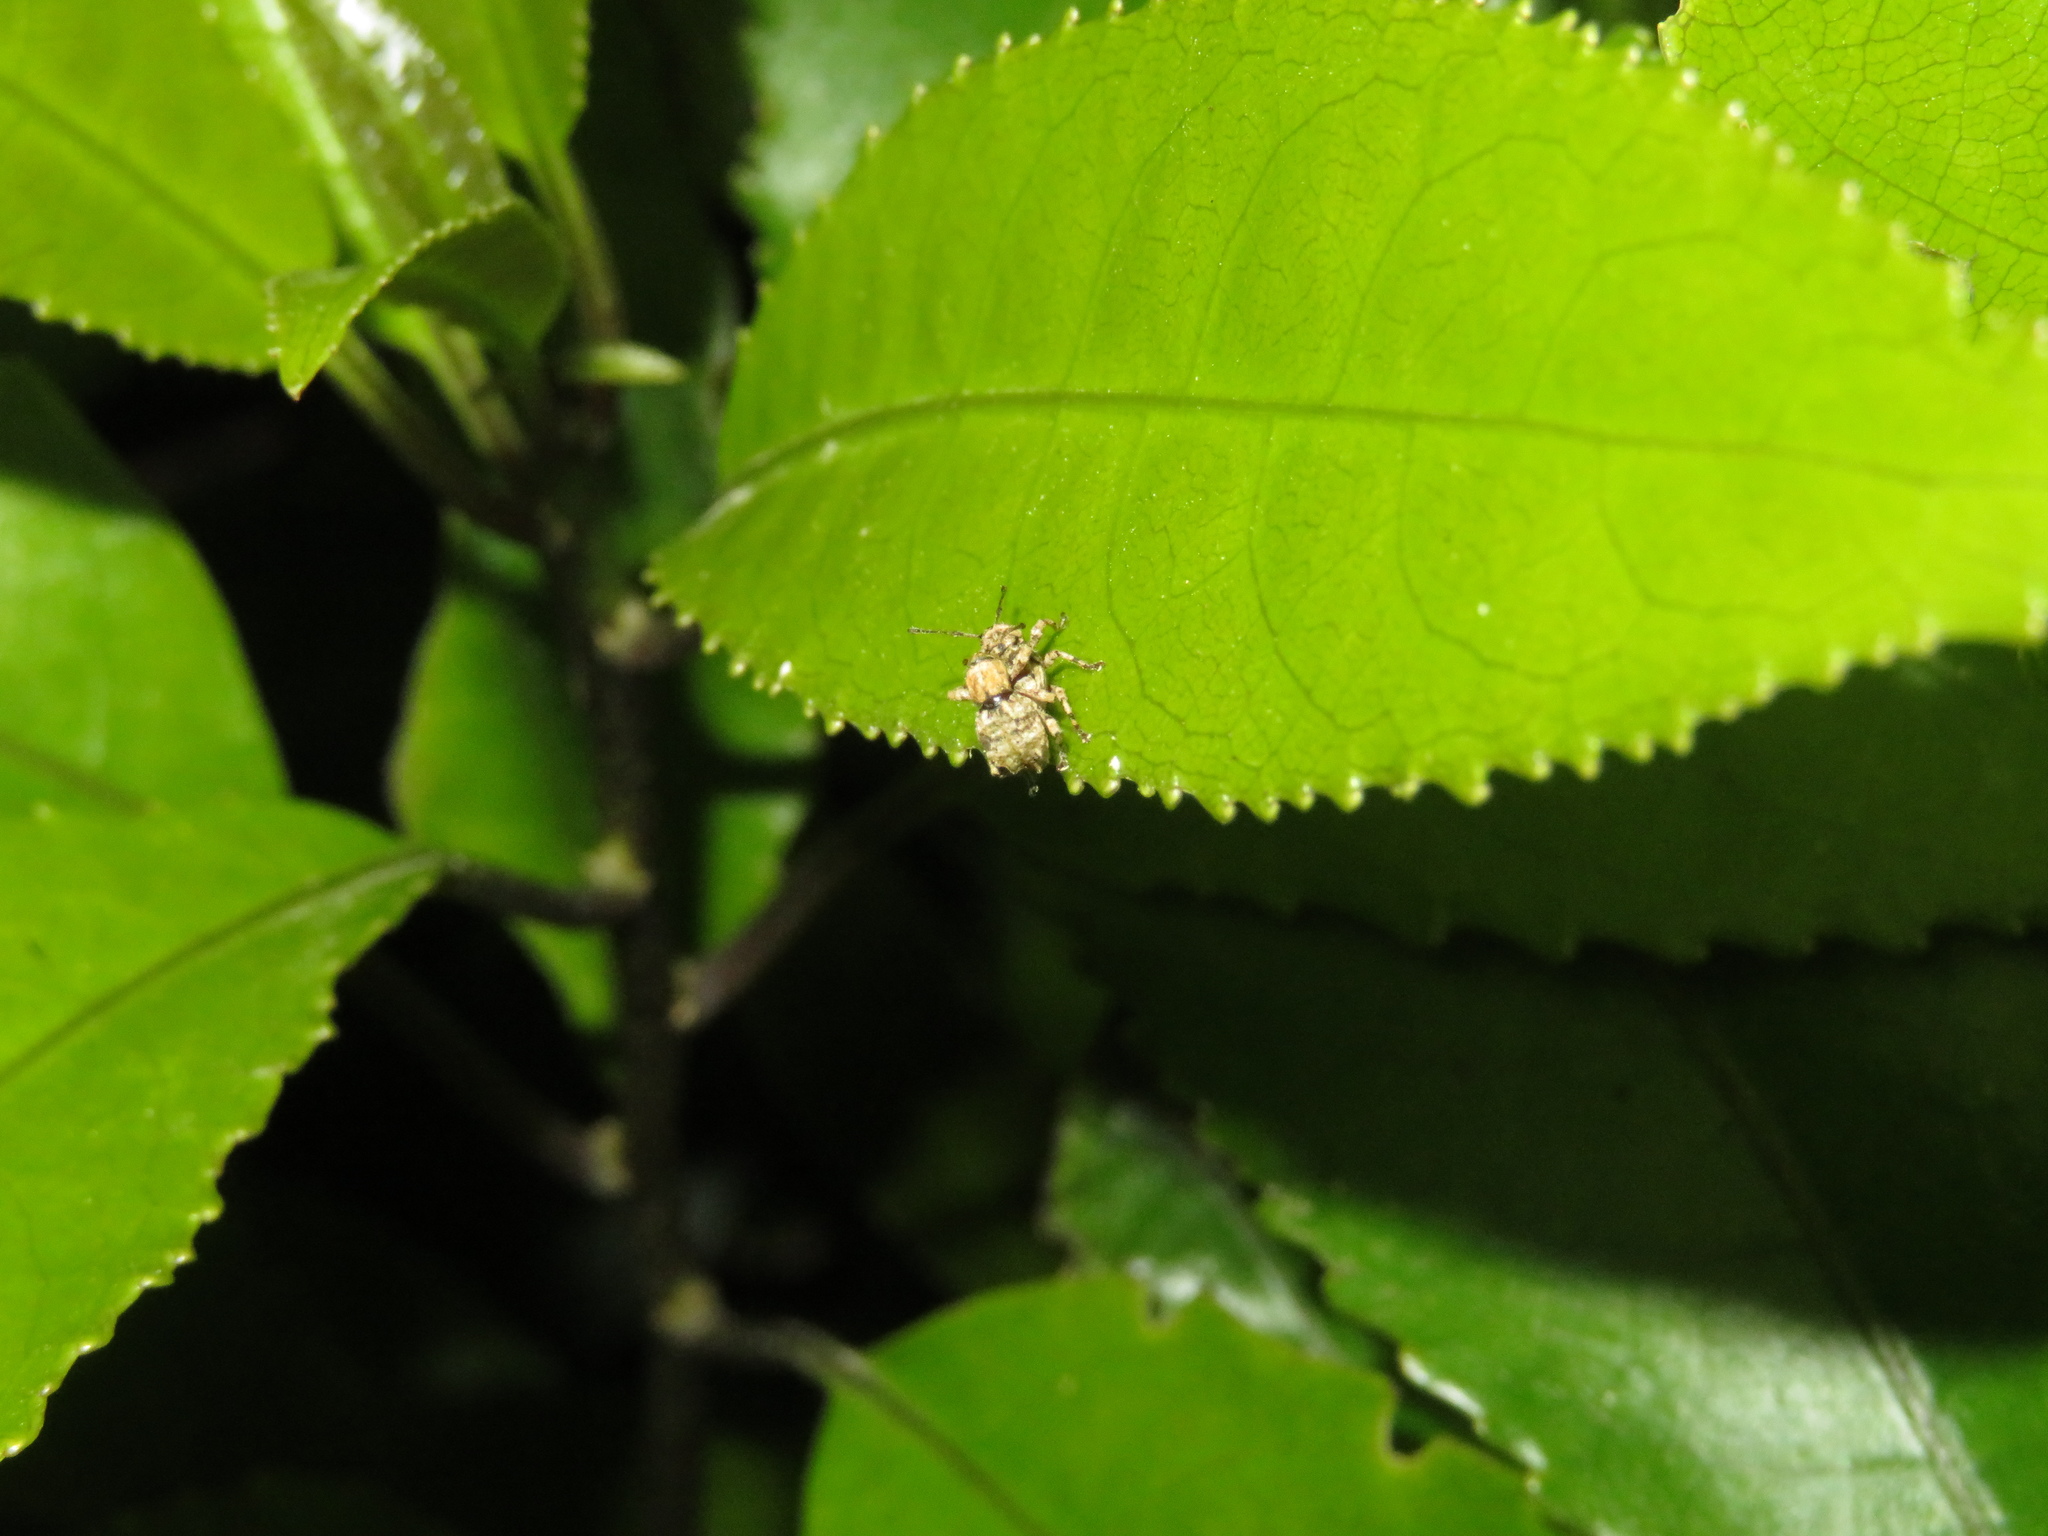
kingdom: Animalia
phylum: Arthropoda
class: Insecta
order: Coleoptera
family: Curculionidae
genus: Brachyolus
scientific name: Brachyolus punctatus
